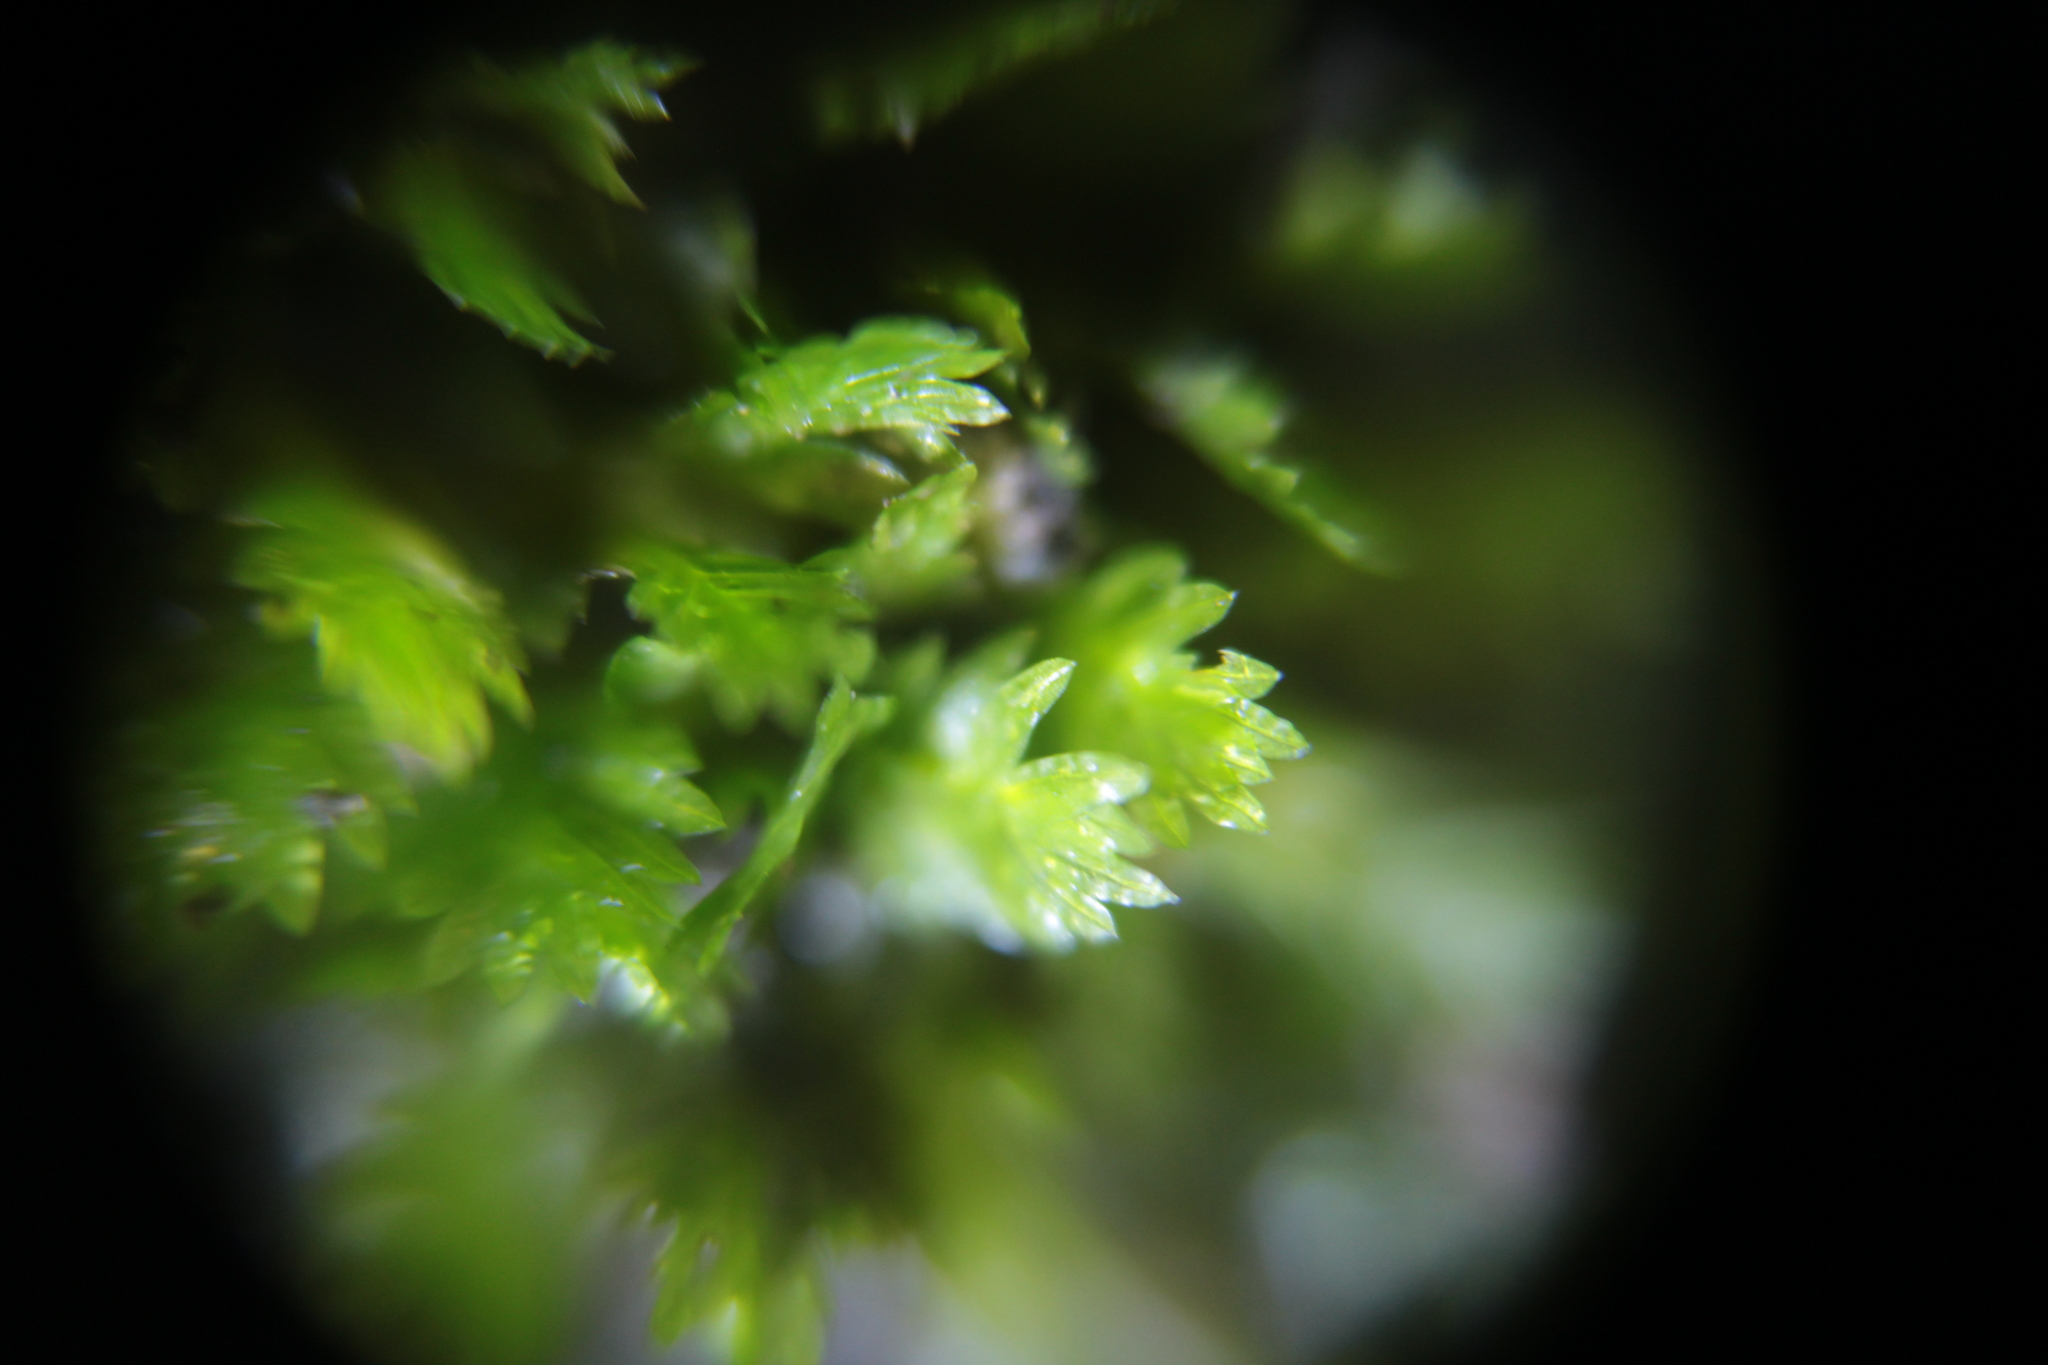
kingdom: Plantae
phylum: Bryophyta
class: Bryopsida
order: Dicranales
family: Fissidentaceae
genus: Fissidens
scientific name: Fissidens taxifolius
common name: Yew-leaved pocket moss
